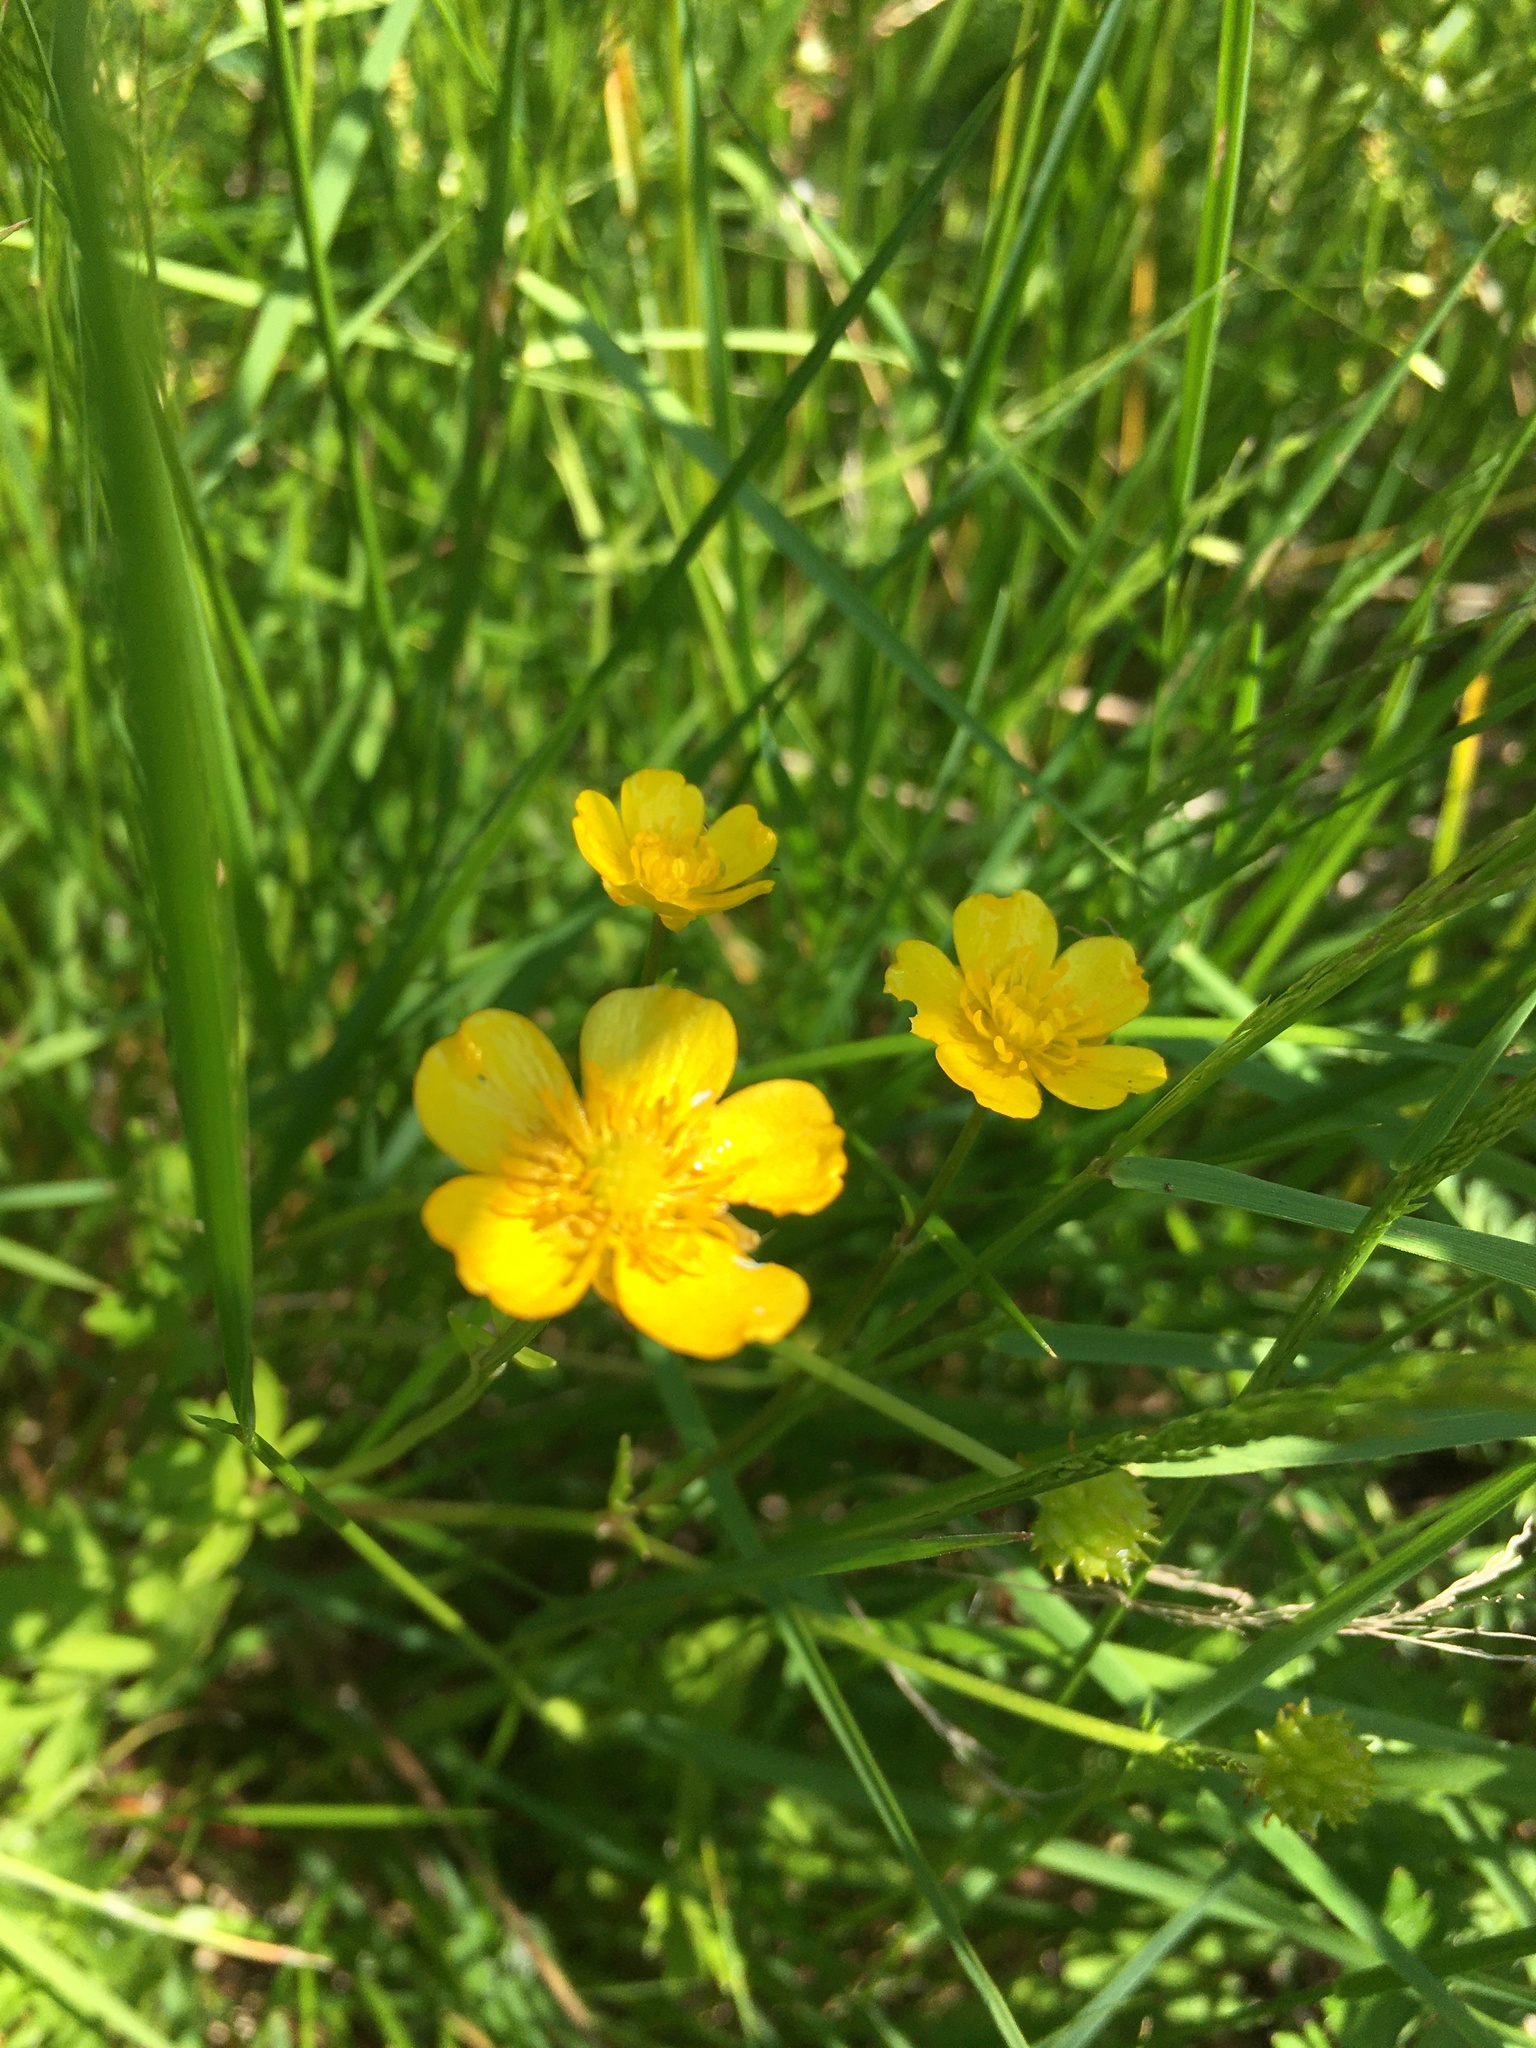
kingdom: Plantae
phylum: Tracheophyta
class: Magnoliopsida
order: Ranunculales
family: Ranunculaceae
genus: Ranunculus
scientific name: Ranunculus repens
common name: Creeping buttercup
